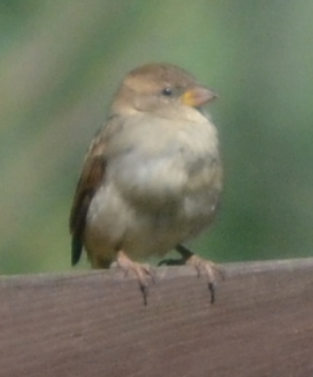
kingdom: Animalia
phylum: Chordata
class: Aves
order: Passeriformes
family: Passeridae
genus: Passer
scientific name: Passer domesticus
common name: House sparrow
